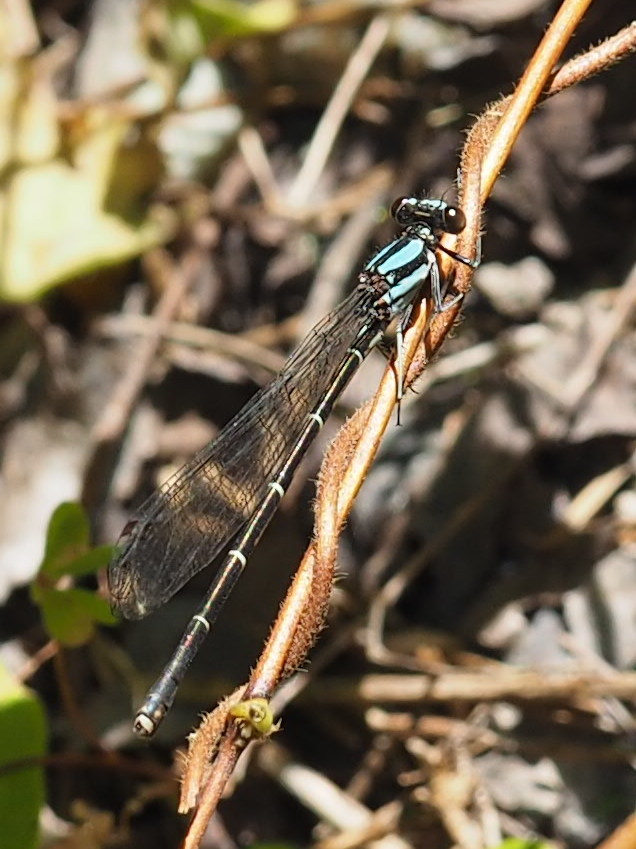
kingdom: Animalia
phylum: Arthropoda
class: Insecta
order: Odonata
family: Coenagrionidae
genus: Argia
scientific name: Argia tibialis
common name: Blue-tipped dancer
